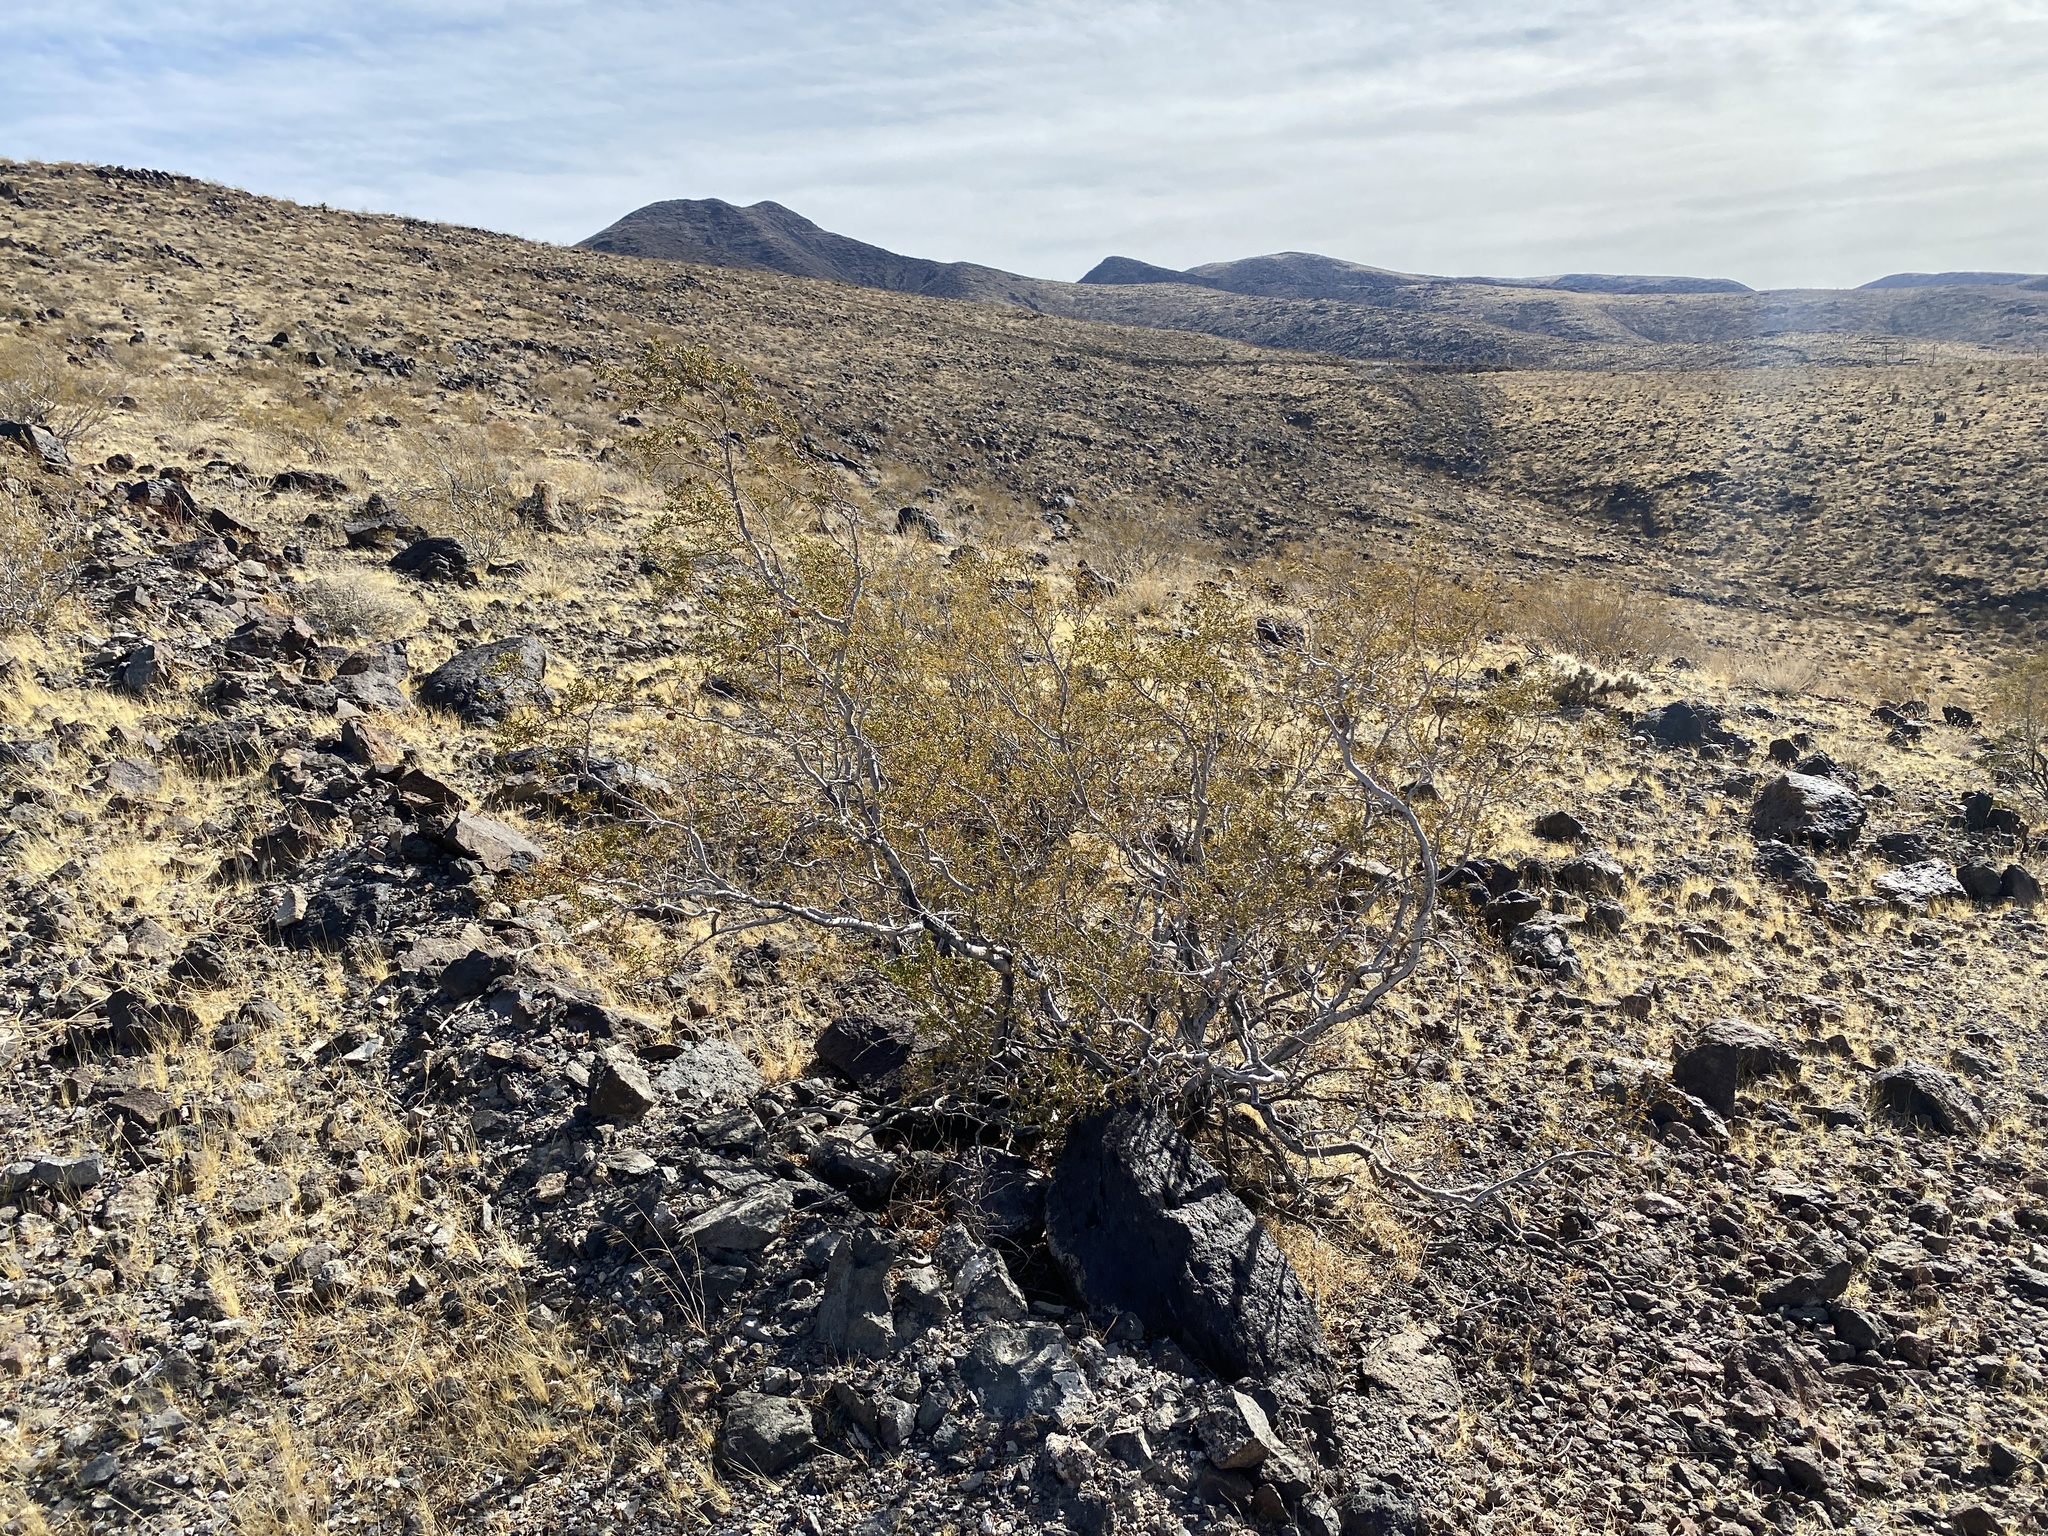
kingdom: Plantae
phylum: Tracheophyta
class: Magnoliopsida
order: Zygophyllales
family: Zygophyllaceae
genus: Larrea
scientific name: Larrea tridentata
